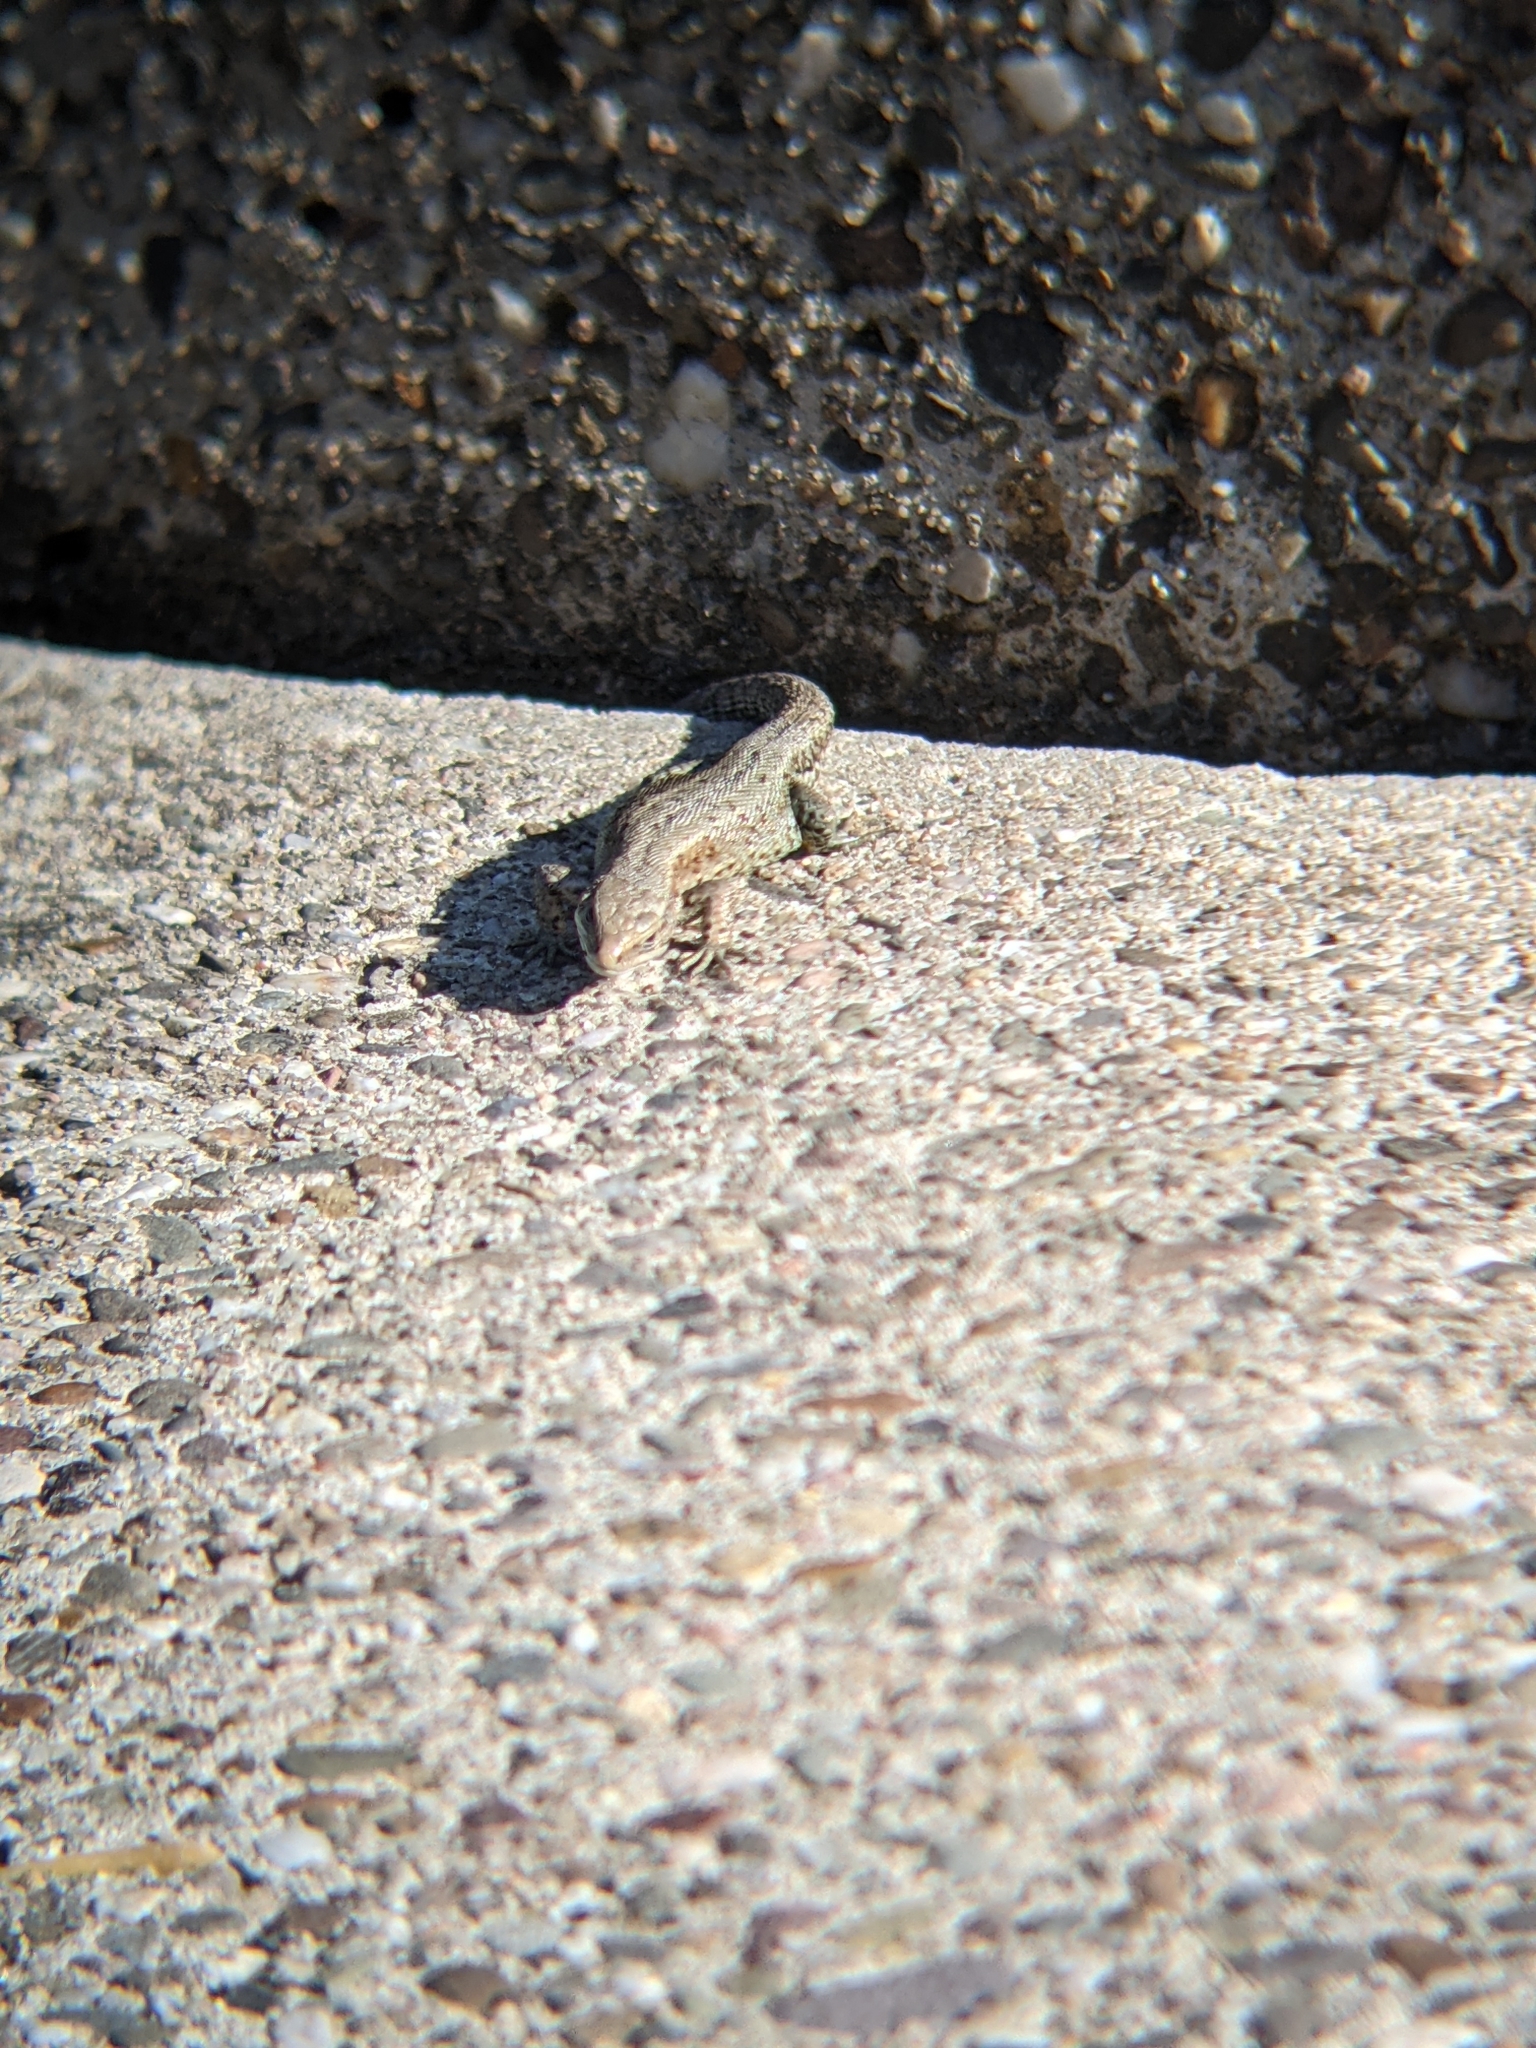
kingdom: Animalia
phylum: Chordata
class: Squamata
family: Lacertidae
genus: Zootoca
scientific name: Zootoca vivipara
